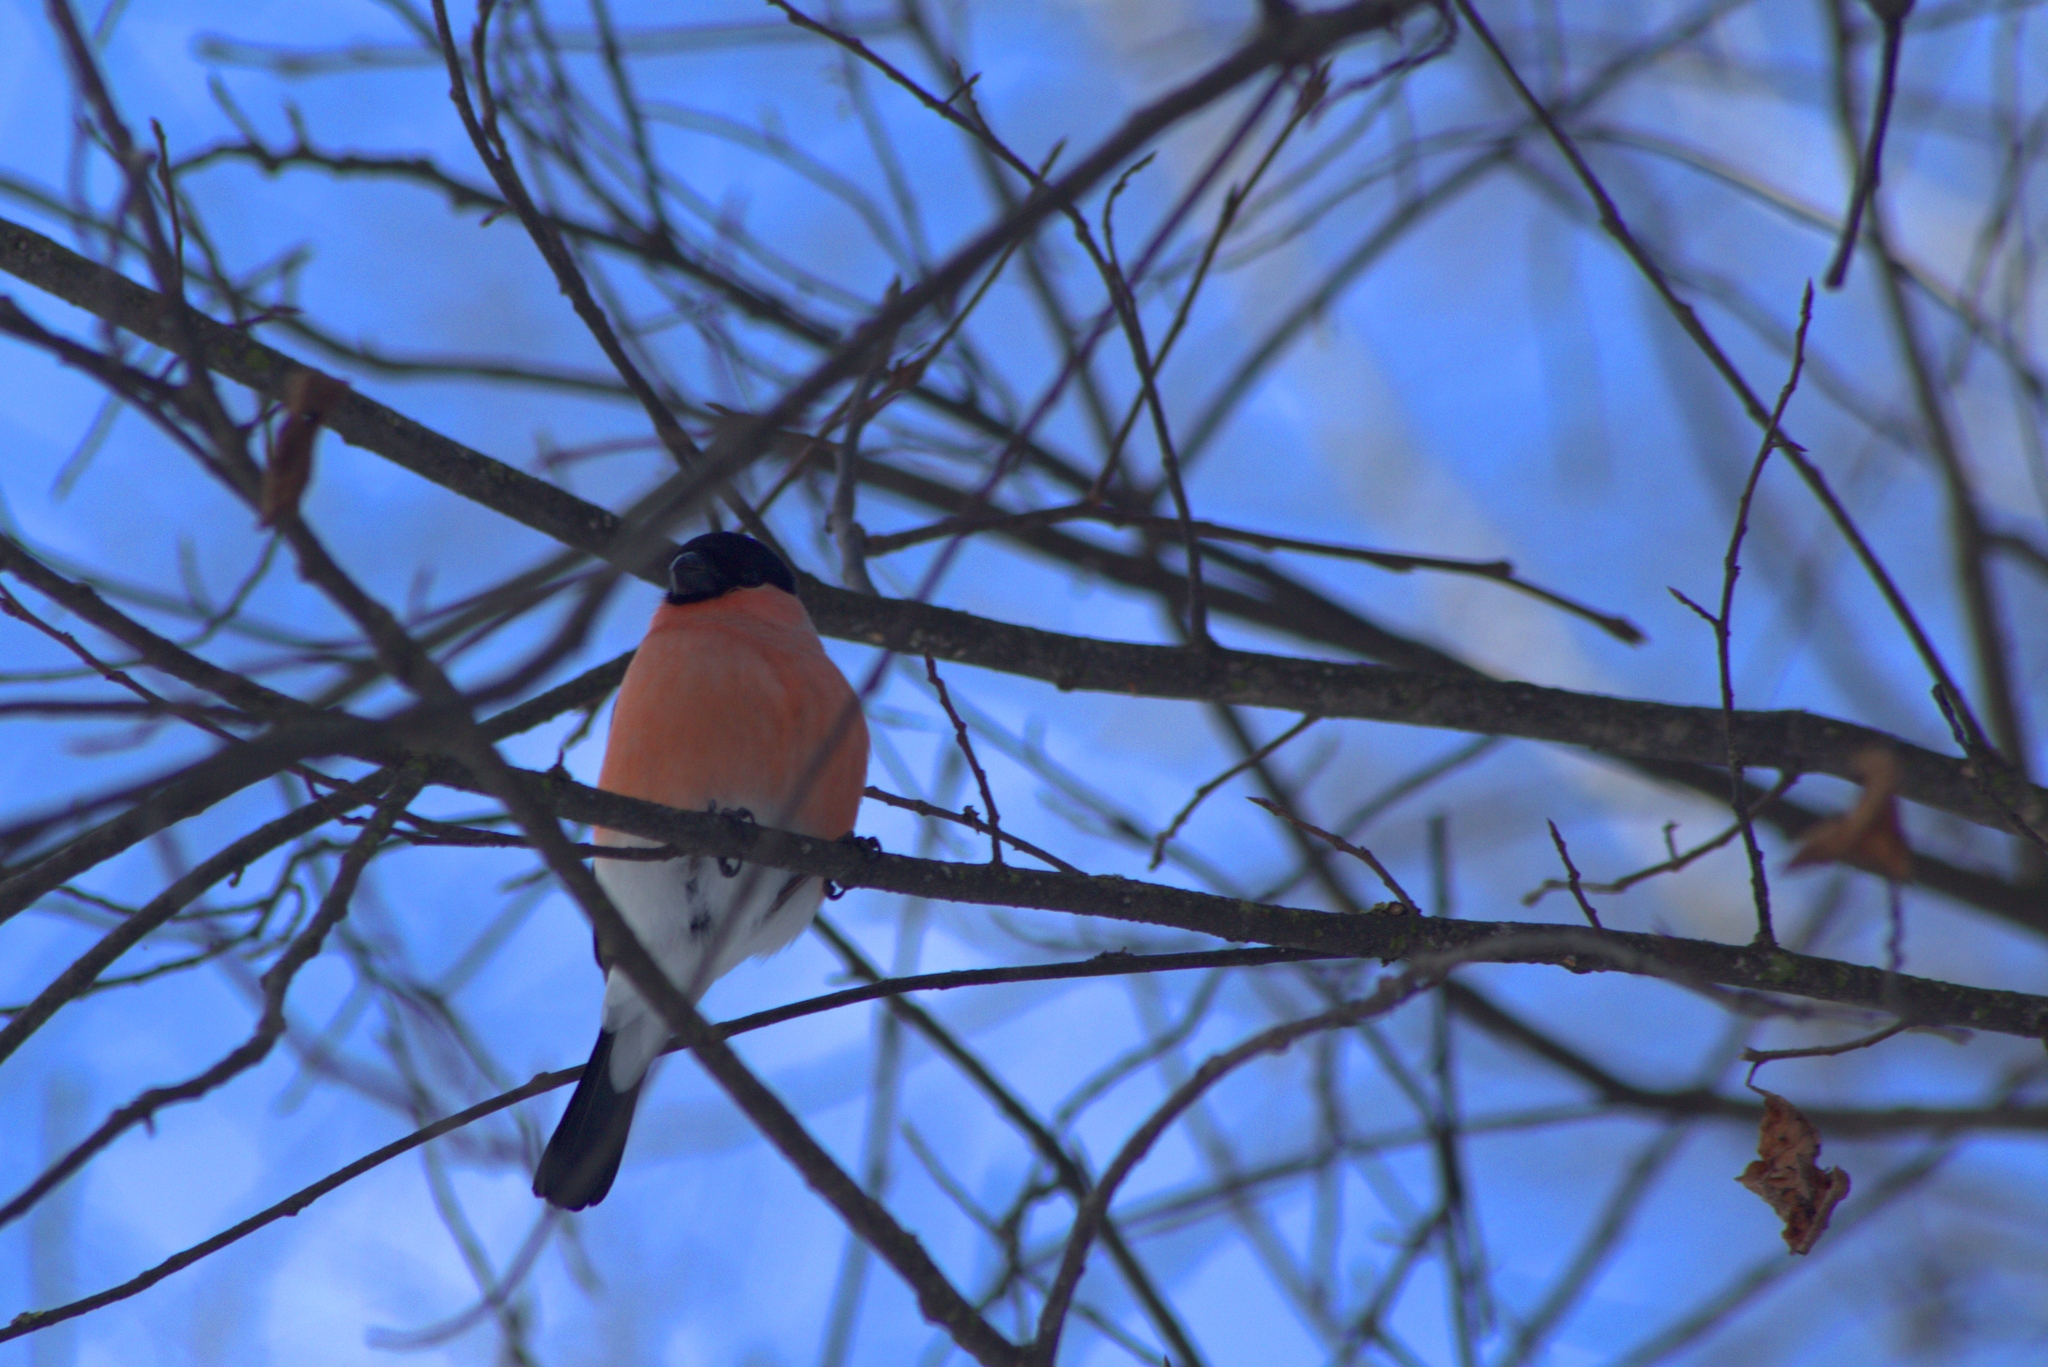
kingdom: Animalia
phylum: Chordata
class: Aves
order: Passeriformes
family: Fringillidae
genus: Pyrrhula
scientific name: Pyrrhula pyrrhula
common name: Eurasian bullfinch
